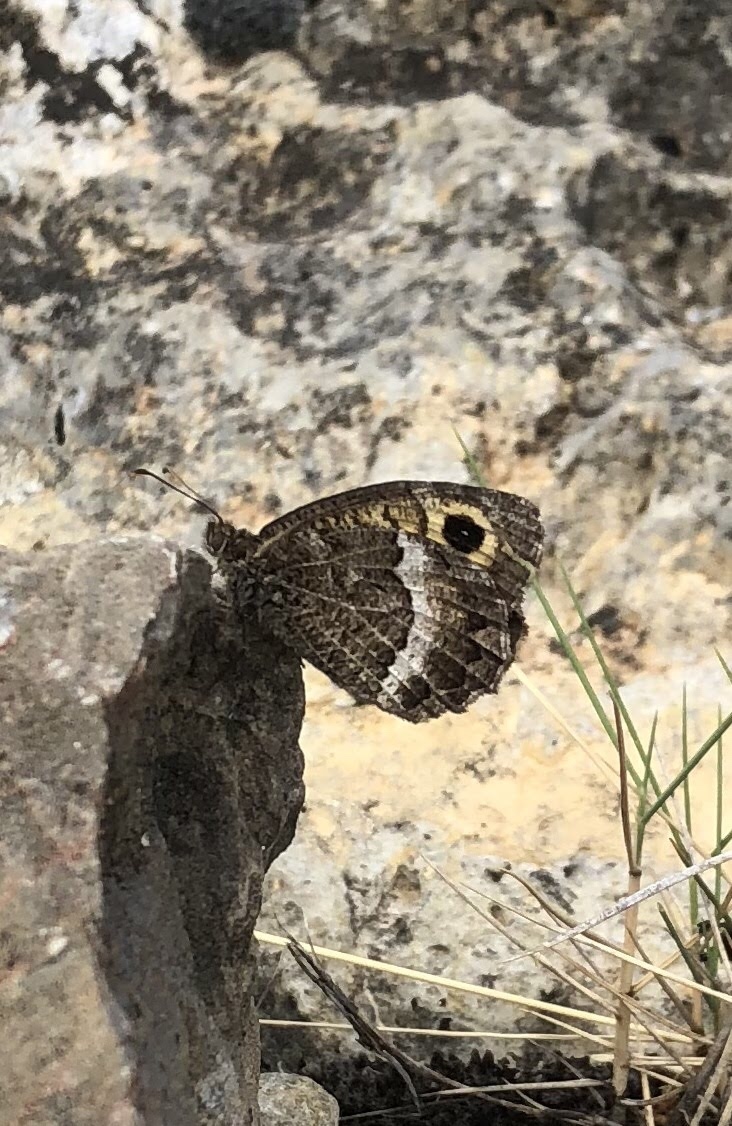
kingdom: Animalia
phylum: Arthropoda
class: Insecta
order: Lepidoptera
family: Nymphalidae
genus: Arethusana
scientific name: Arethusana arethusa
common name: False grayling
